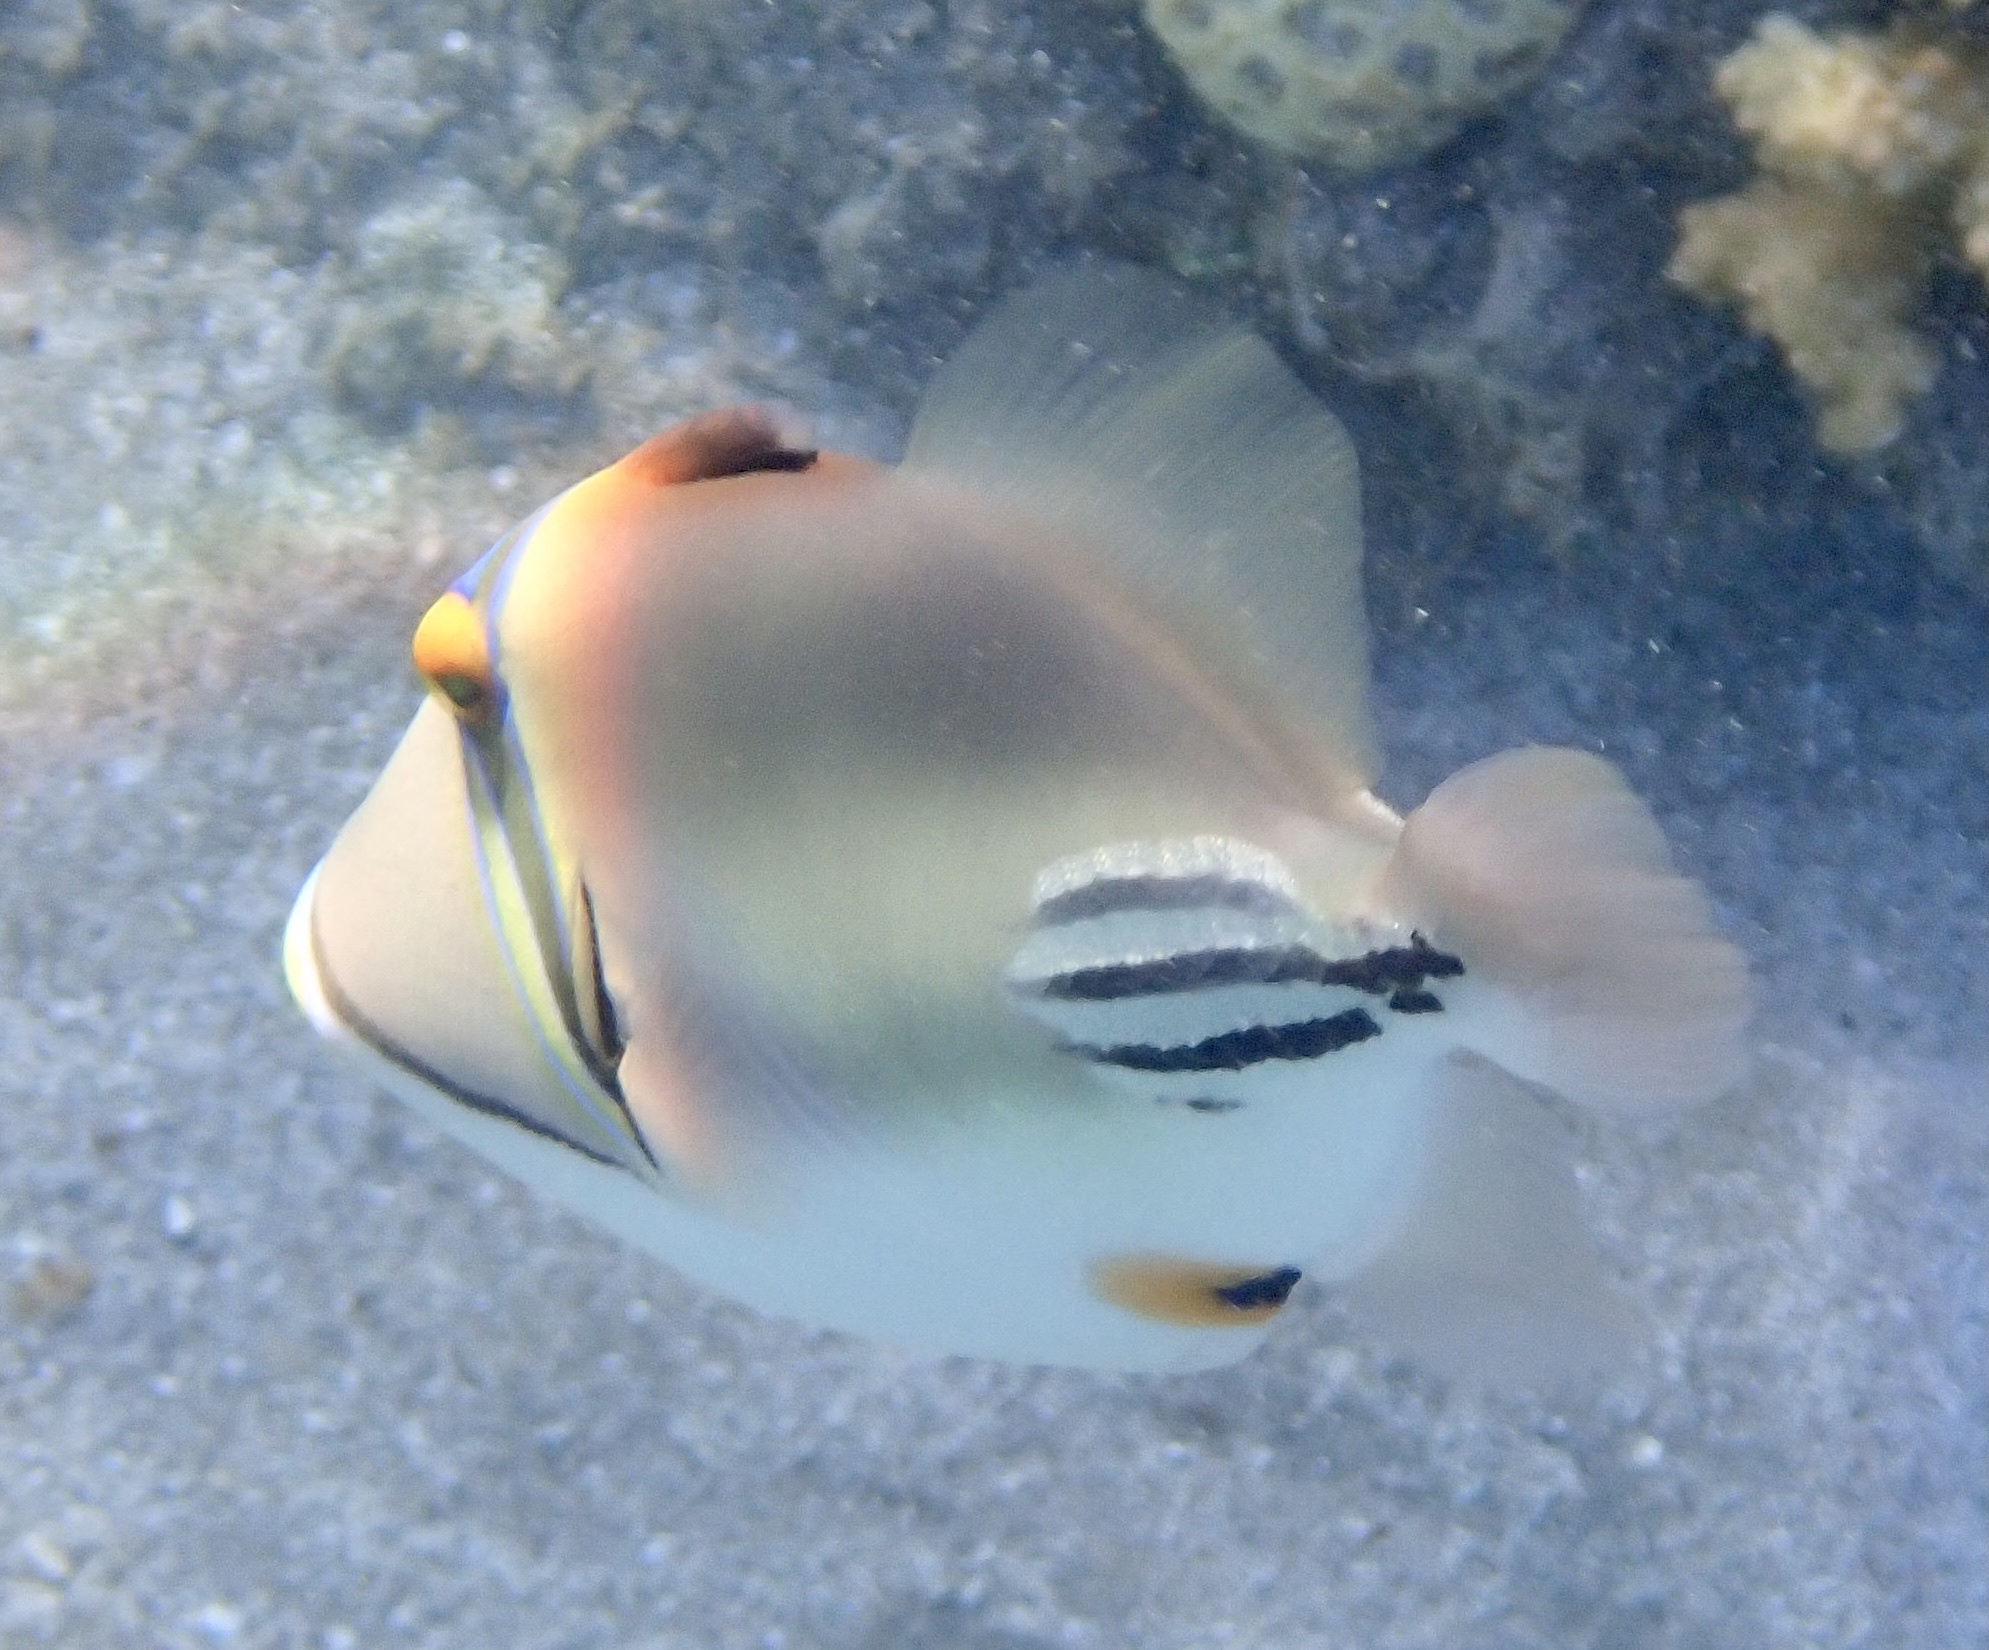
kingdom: Animalia
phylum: Chordata
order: Tetraodontiformes
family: Balistidae
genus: Rhinecanthus
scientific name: Rhinecanthus assasi
